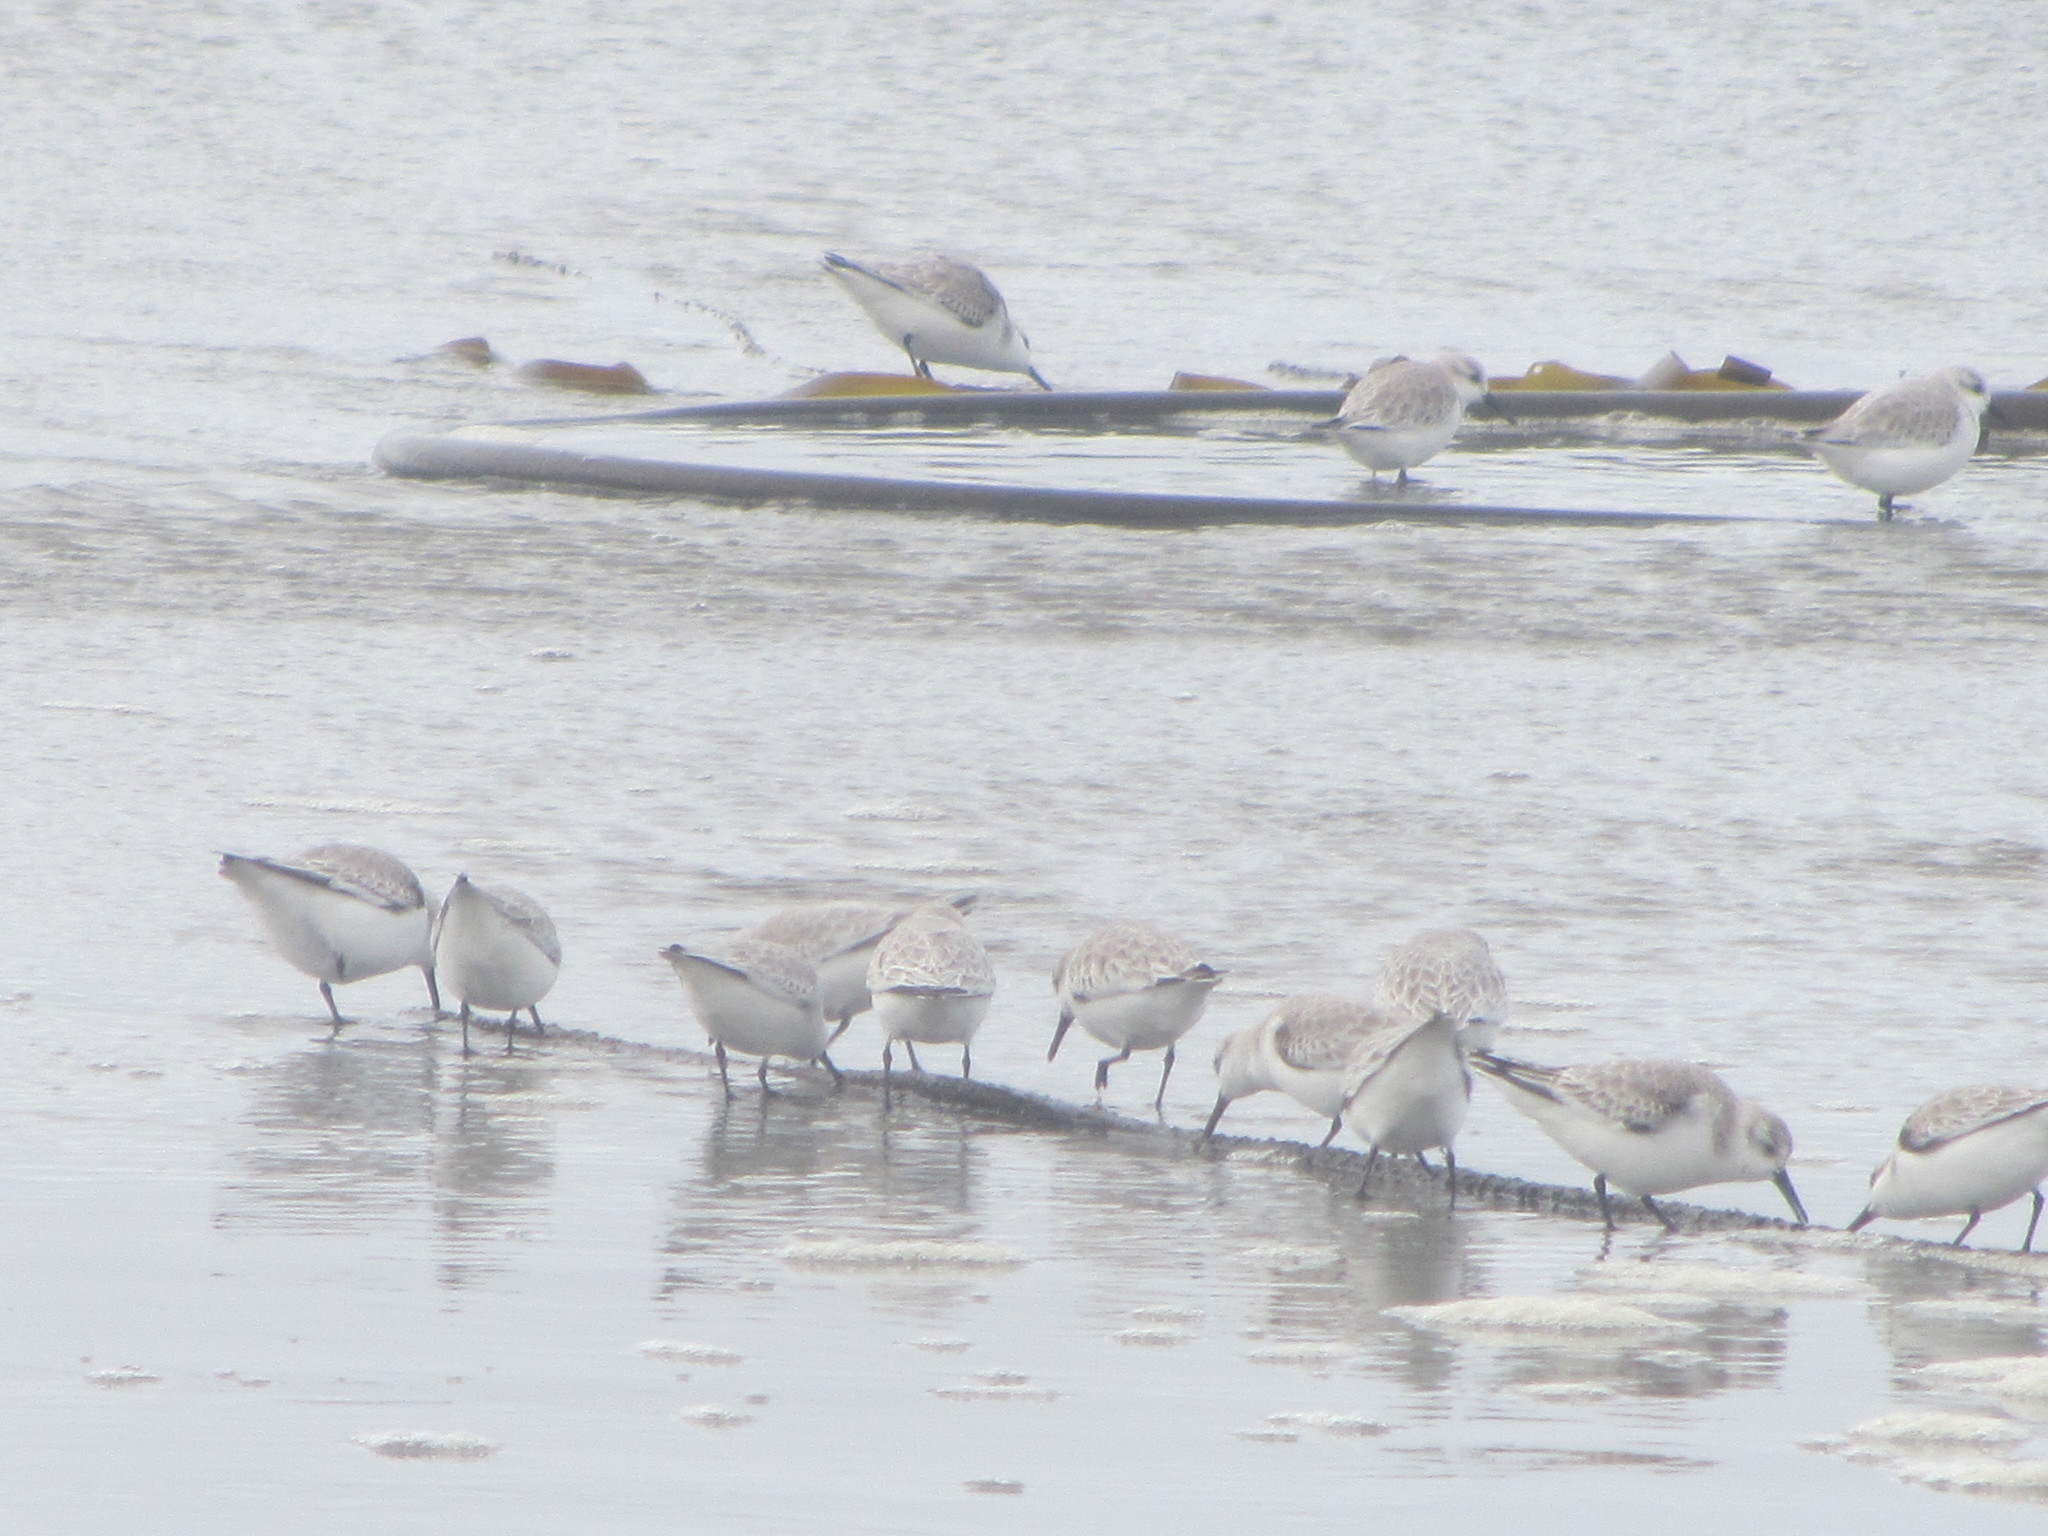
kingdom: Animalia
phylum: Chordata
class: Aves
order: Charadriiformes
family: Scolopacidae
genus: Calidris
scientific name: Calidris alba
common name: Sanderling
